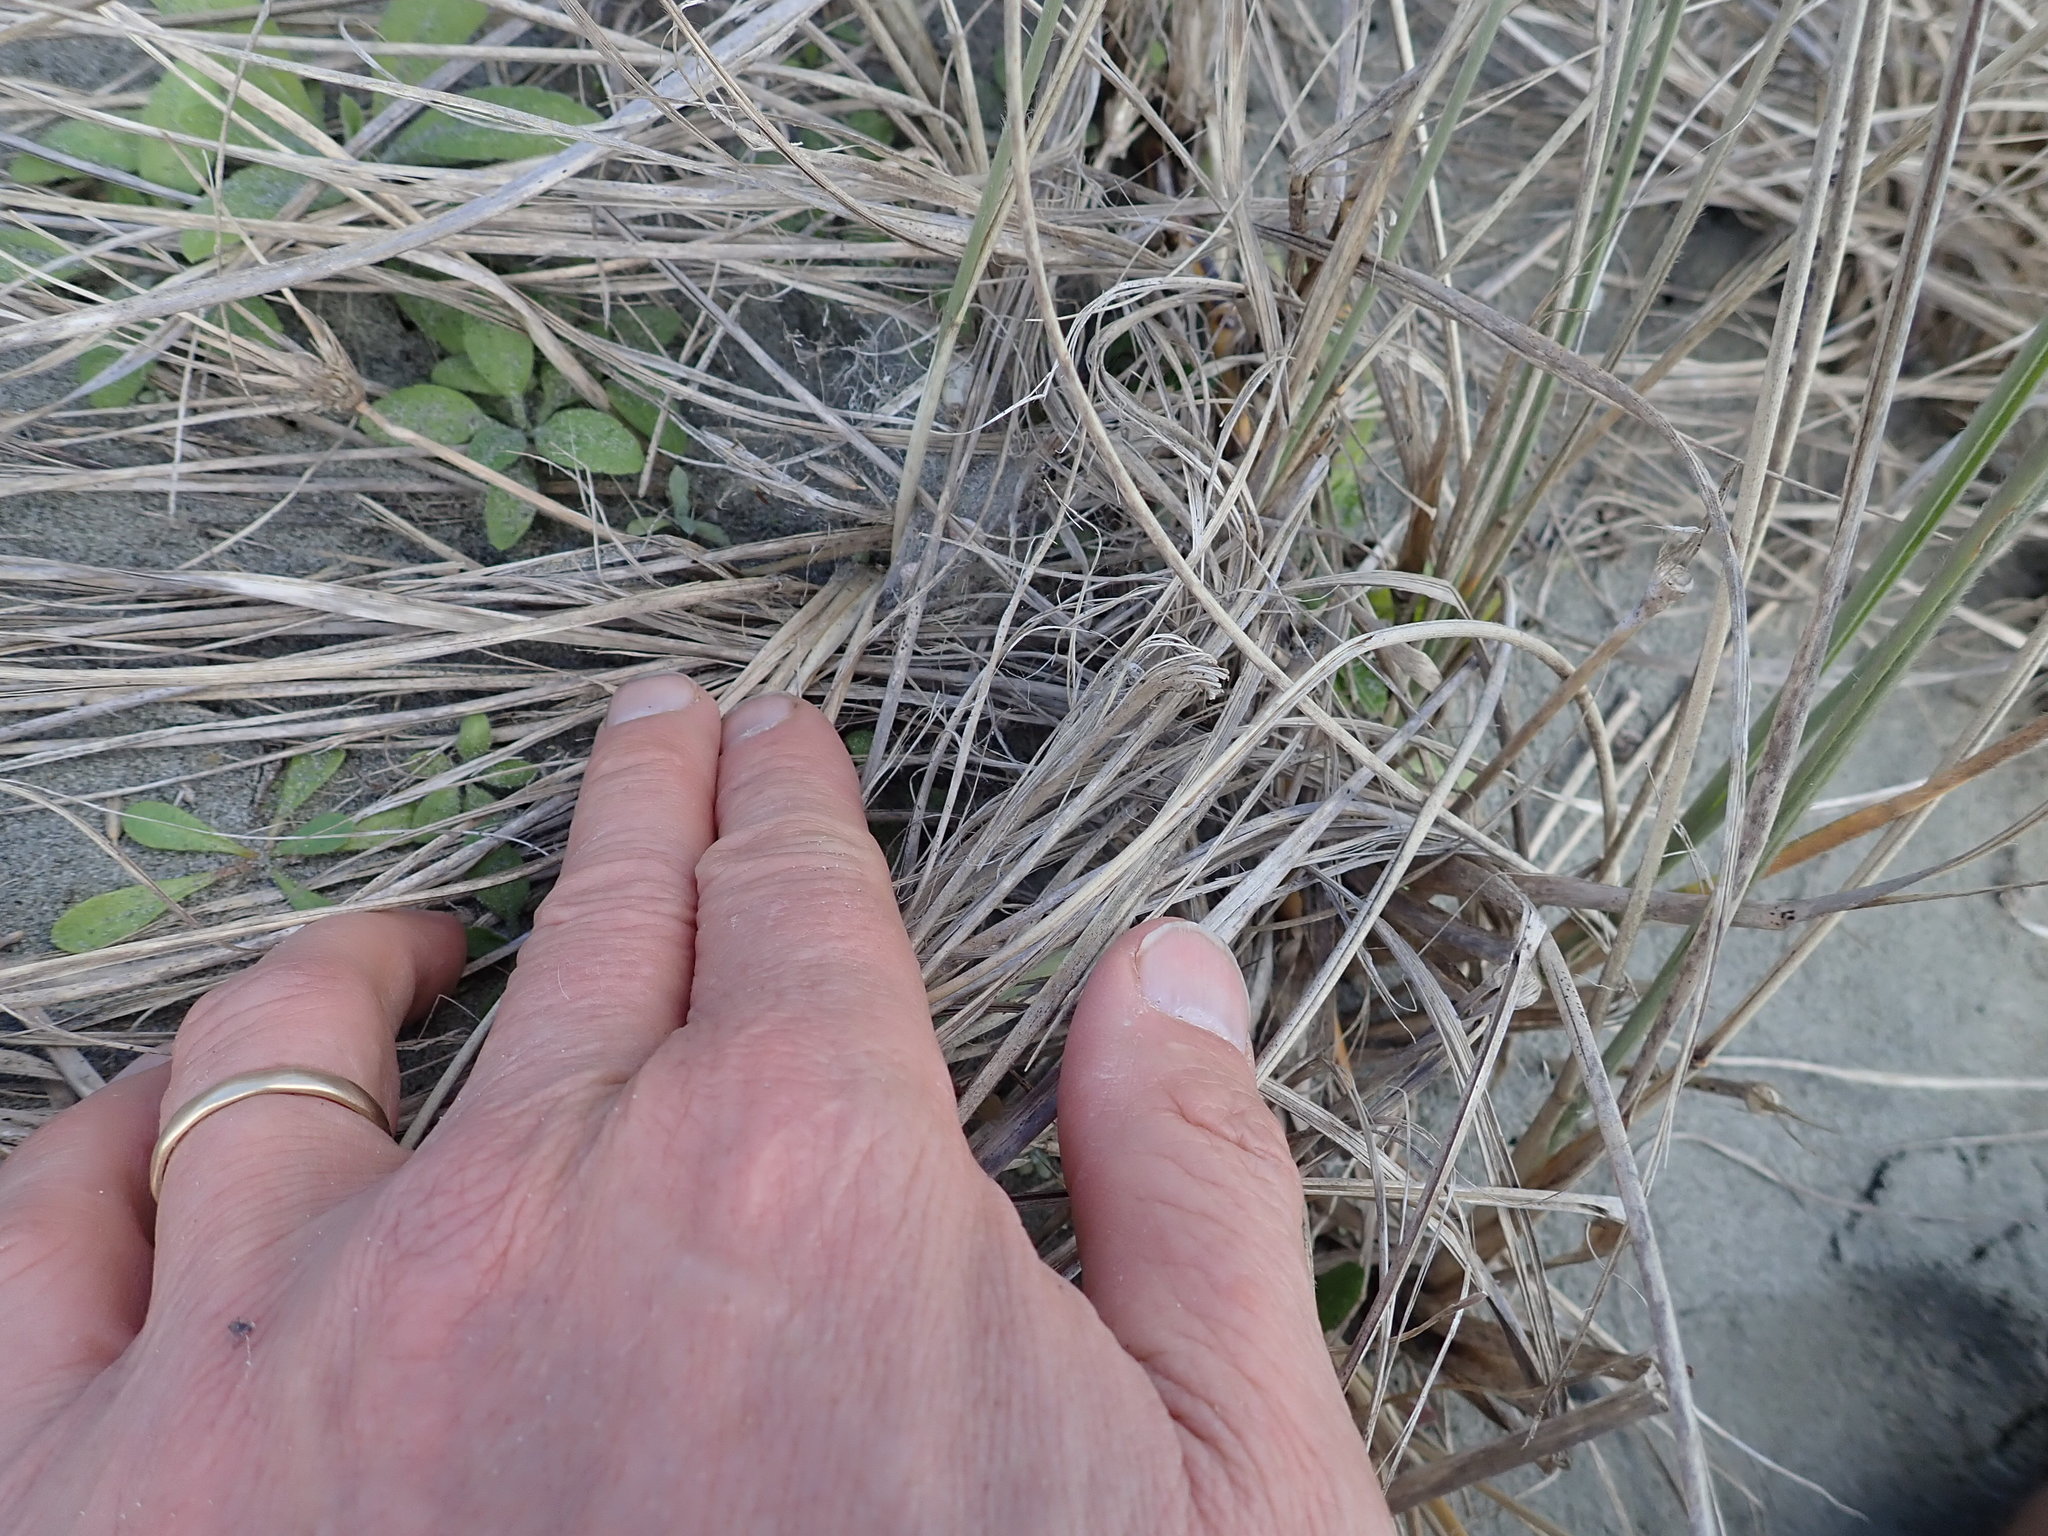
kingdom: Animalia
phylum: Arthropoda
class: Arachnida
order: Araneae
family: Theridiidae
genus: Latrodectus
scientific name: Latrodectus katipo
